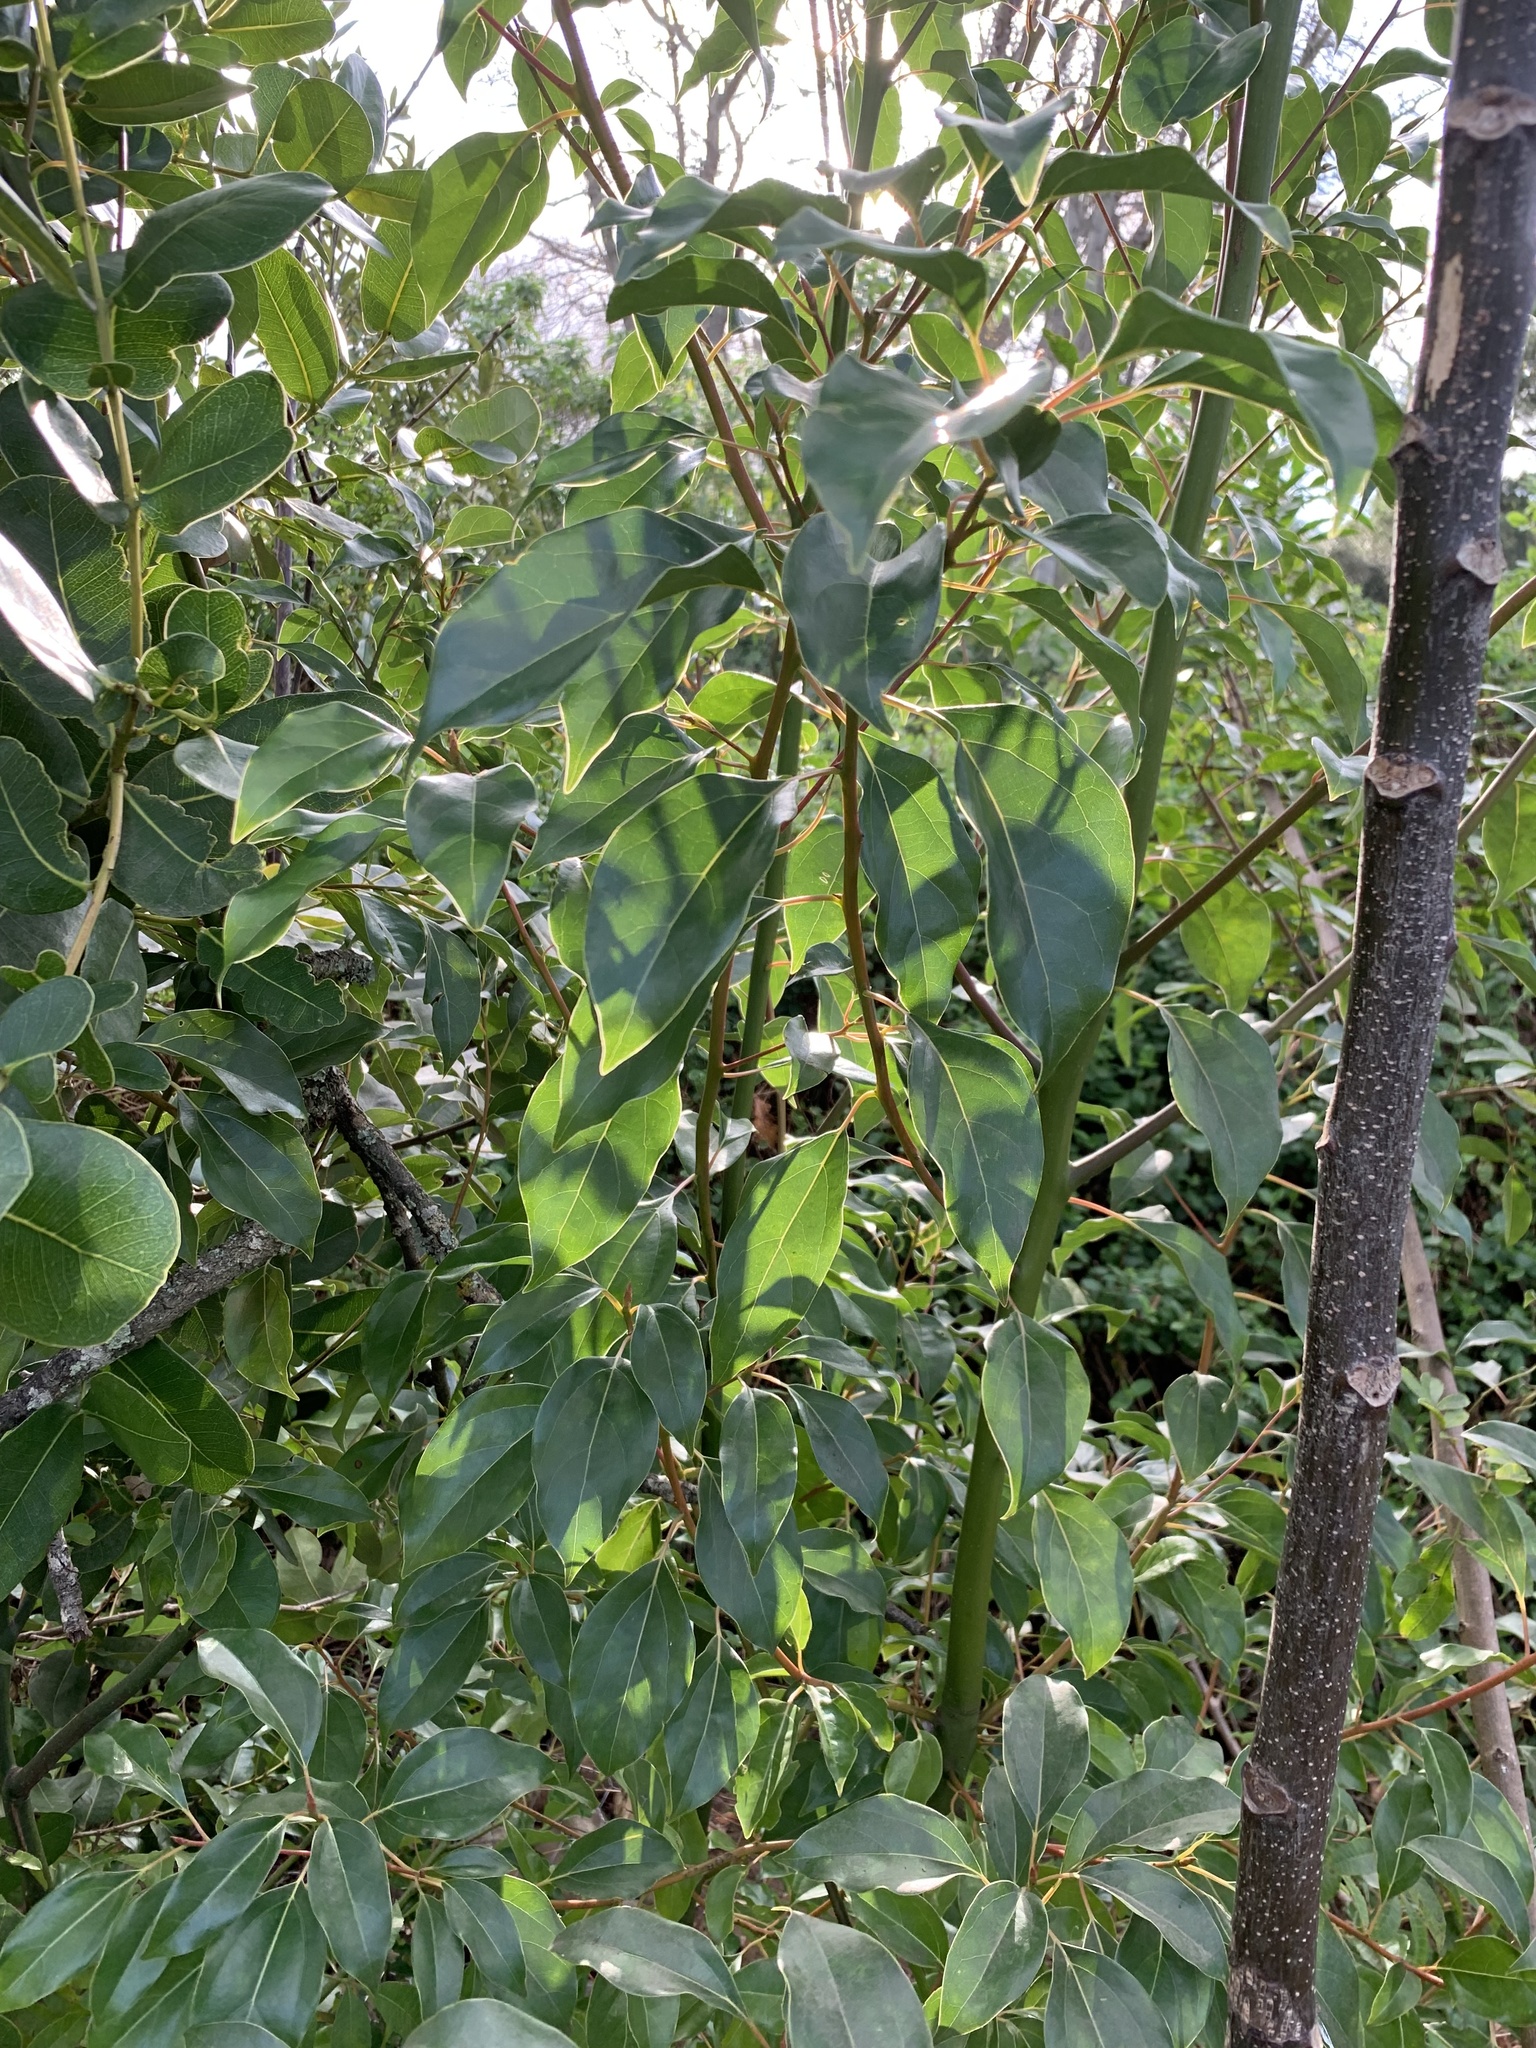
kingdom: Plantae
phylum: Tracheophyta
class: Magnoliopsida
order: Laurales
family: Lauraceae
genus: Cinnamomum
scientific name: Cinnamomum camphora
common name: Camphortree
